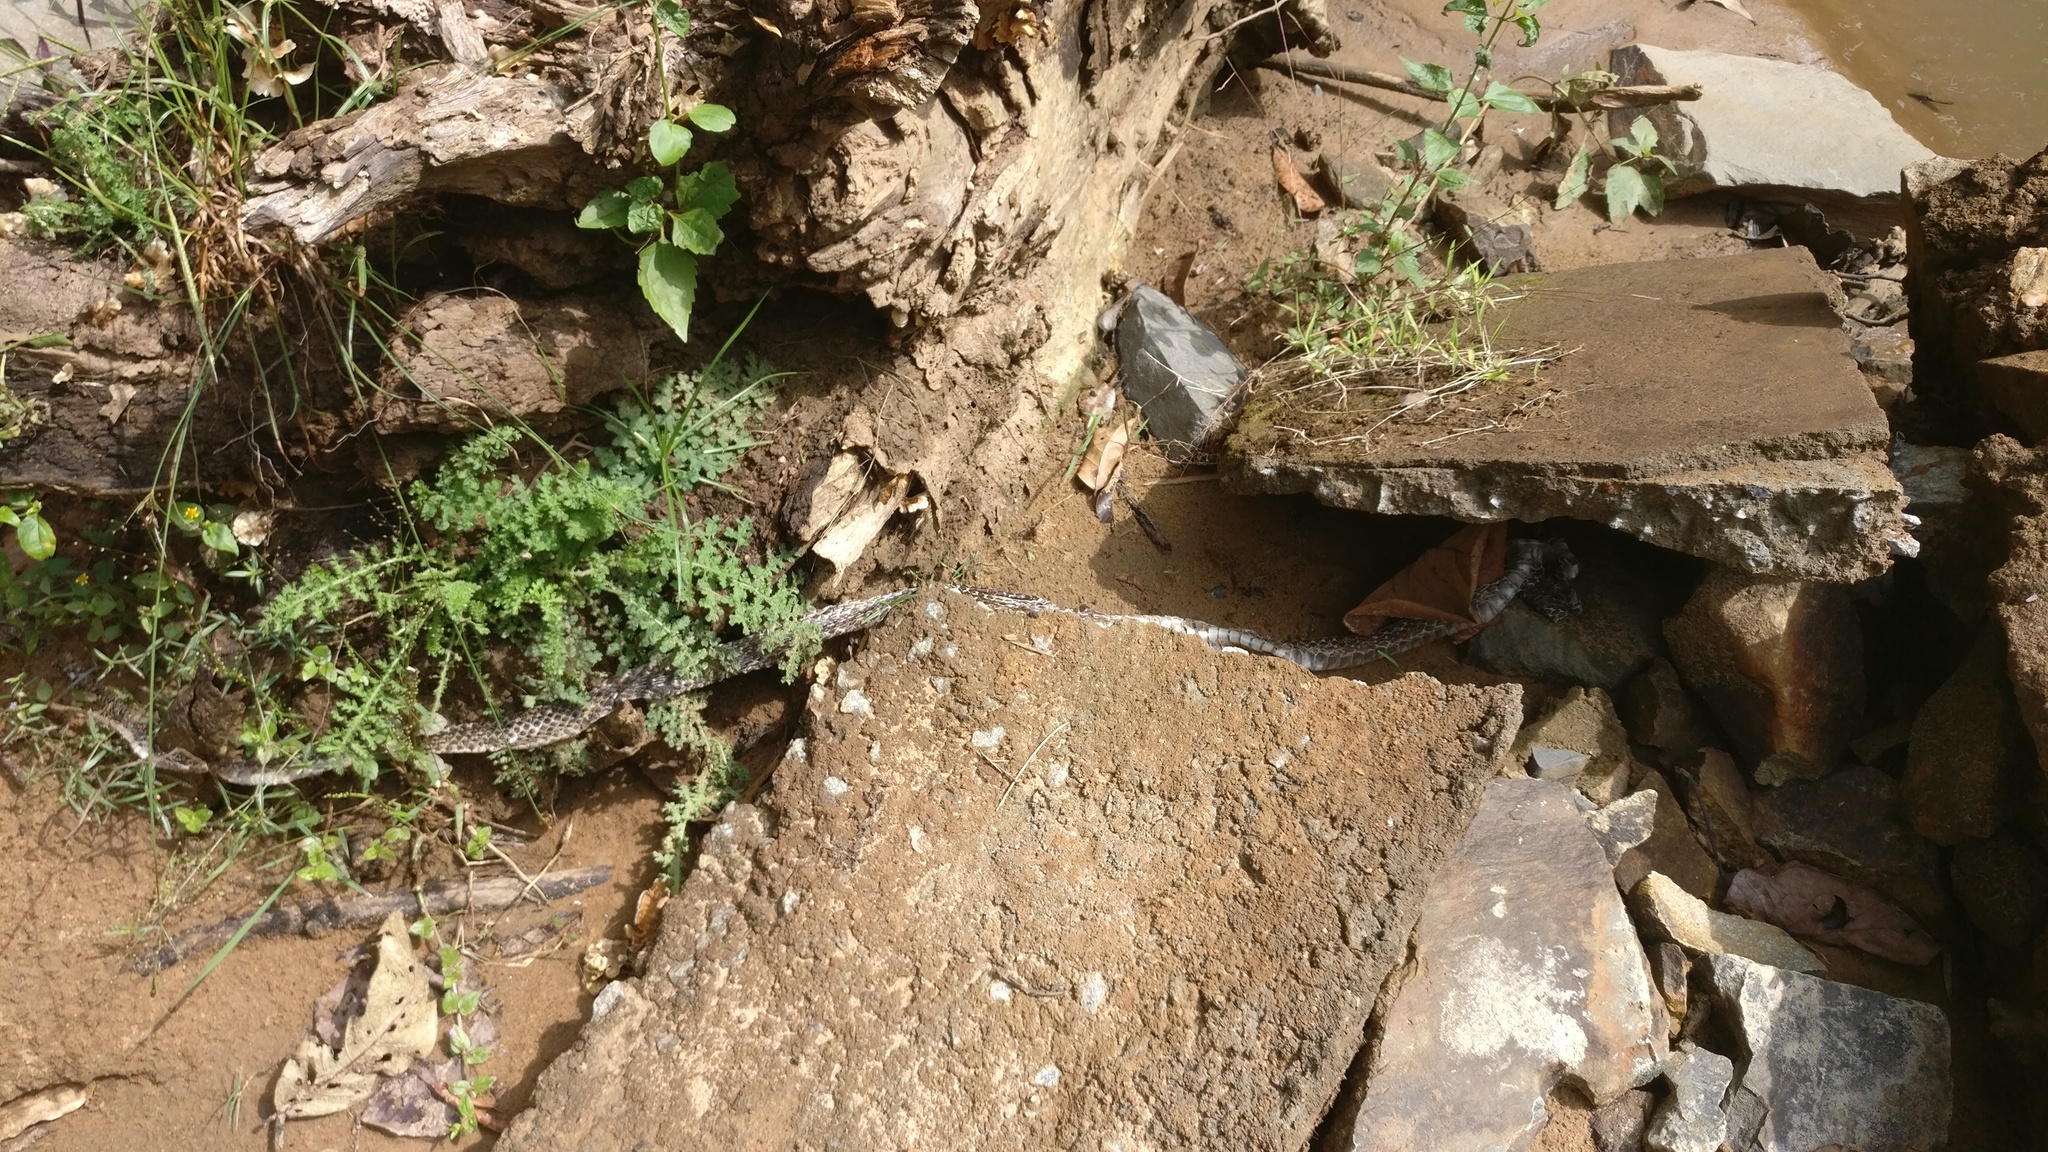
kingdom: Animalia
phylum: Chordata
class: Squamata
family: Elapidae
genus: Ophiophagus
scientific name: Ophiophagus hannah
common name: Hamadryad
